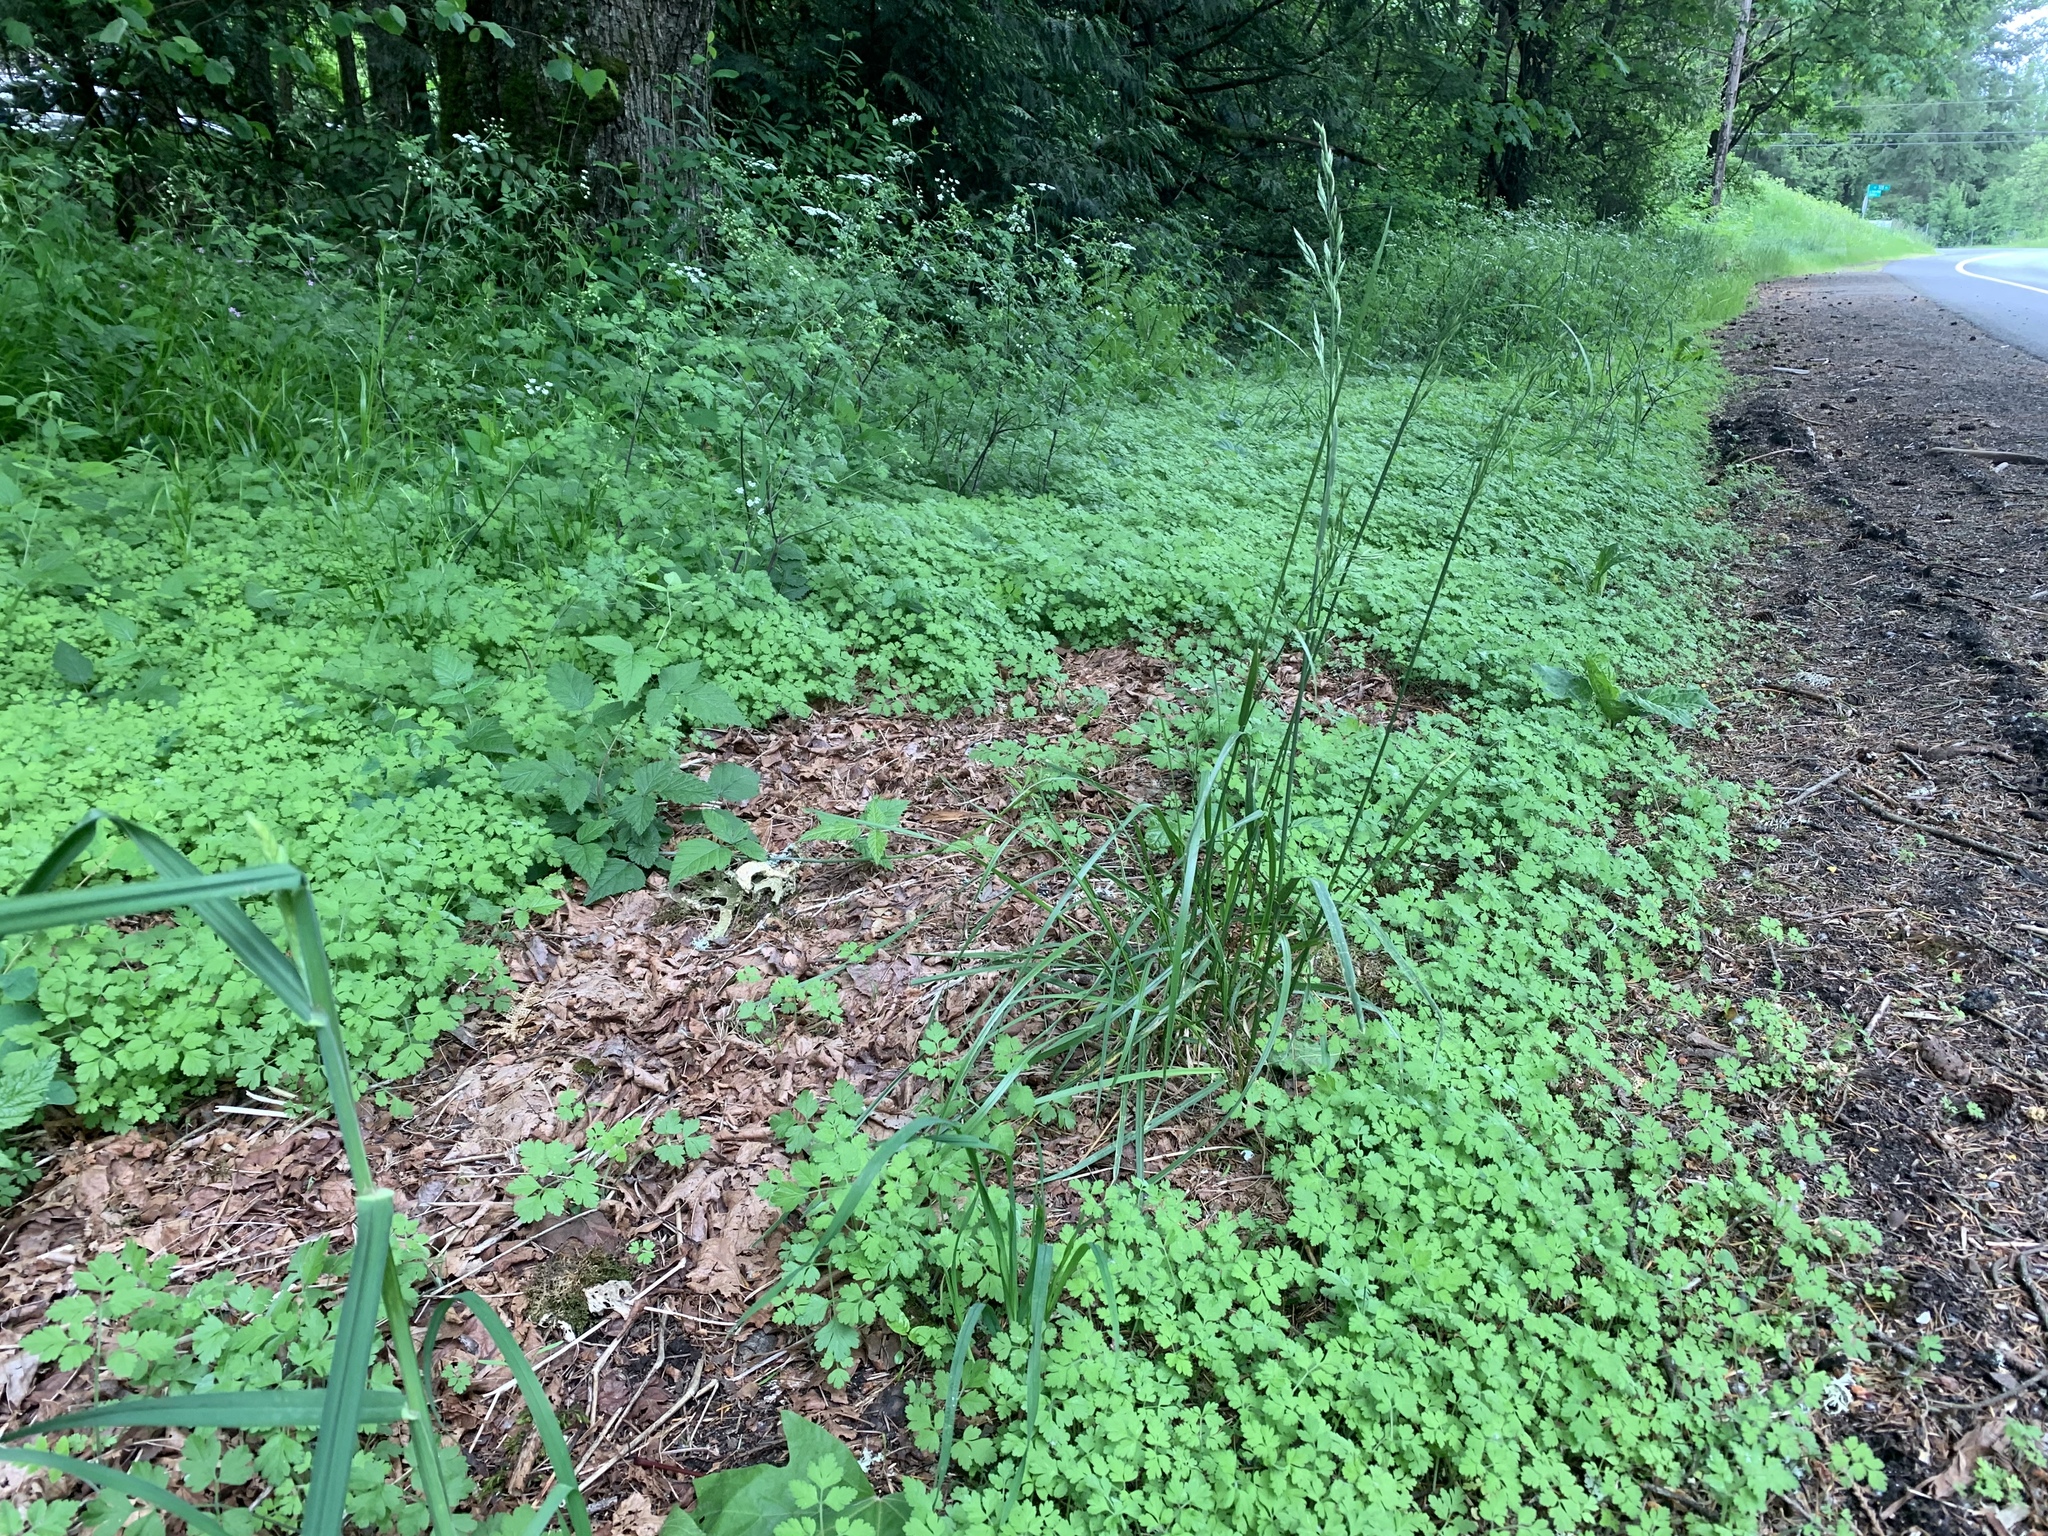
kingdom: Plantae
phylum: Tracheophyta
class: Magnoliopsida
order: Apiales
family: Apiaceae
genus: Chaerophyllum
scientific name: Chaerophyllum temulum
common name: Rough chervil
